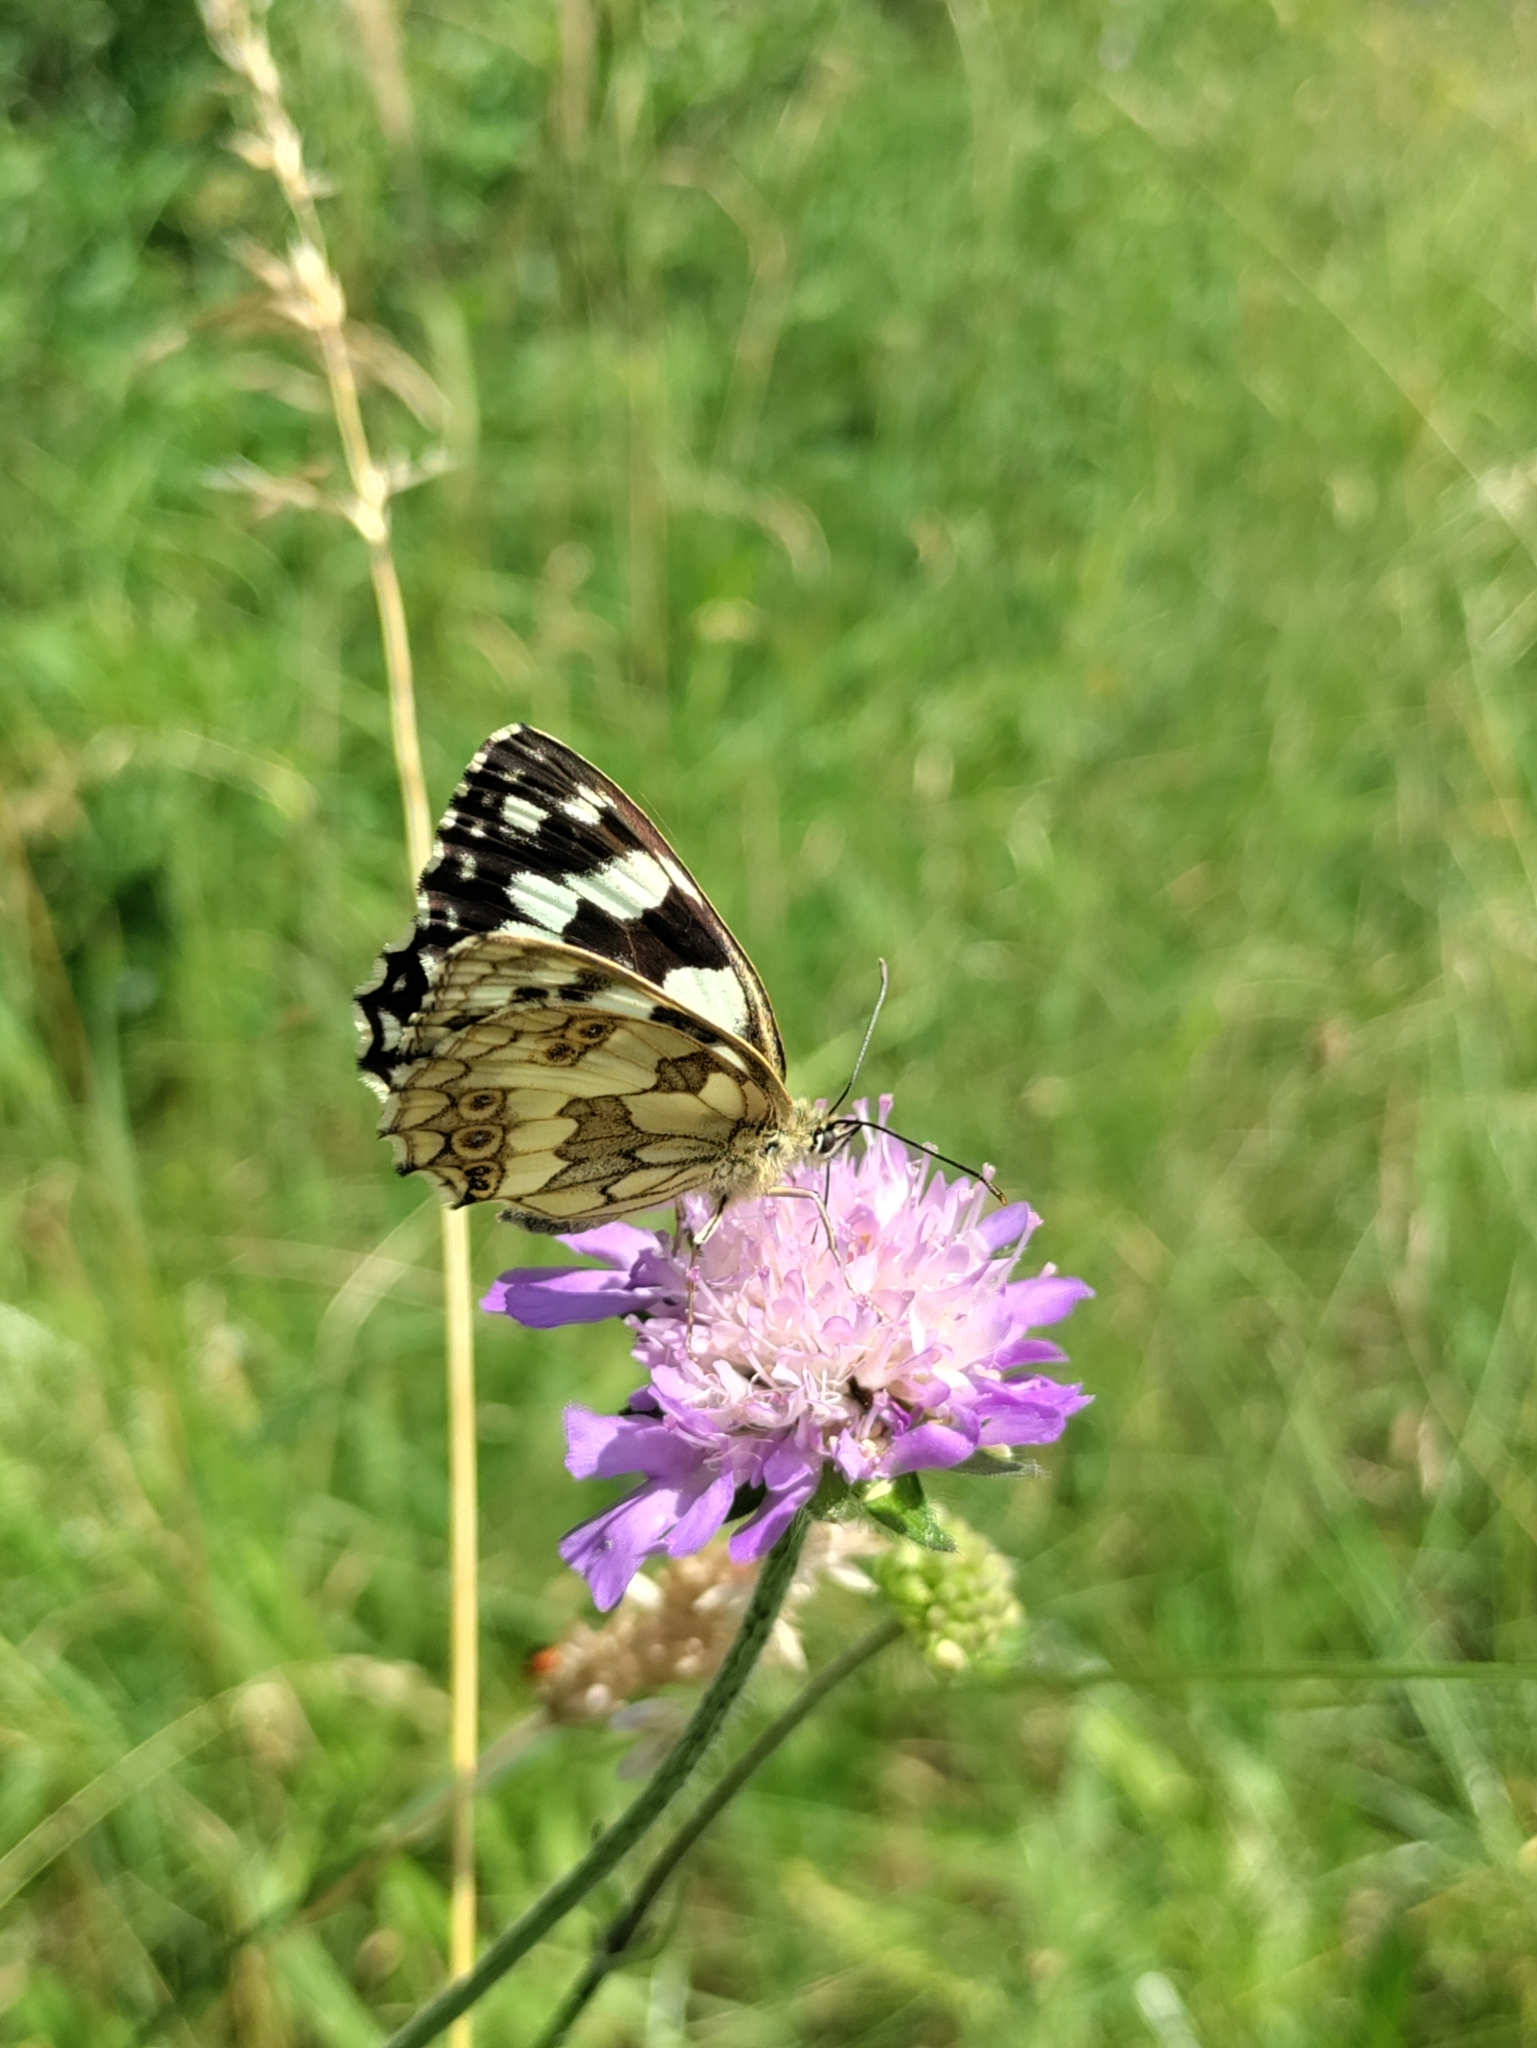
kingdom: Animalia
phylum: Arthropoda
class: Insecta
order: Lepidoptera
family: Nymphalidae
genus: Melanargia
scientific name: Melanargia galathea
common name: Marbled white
